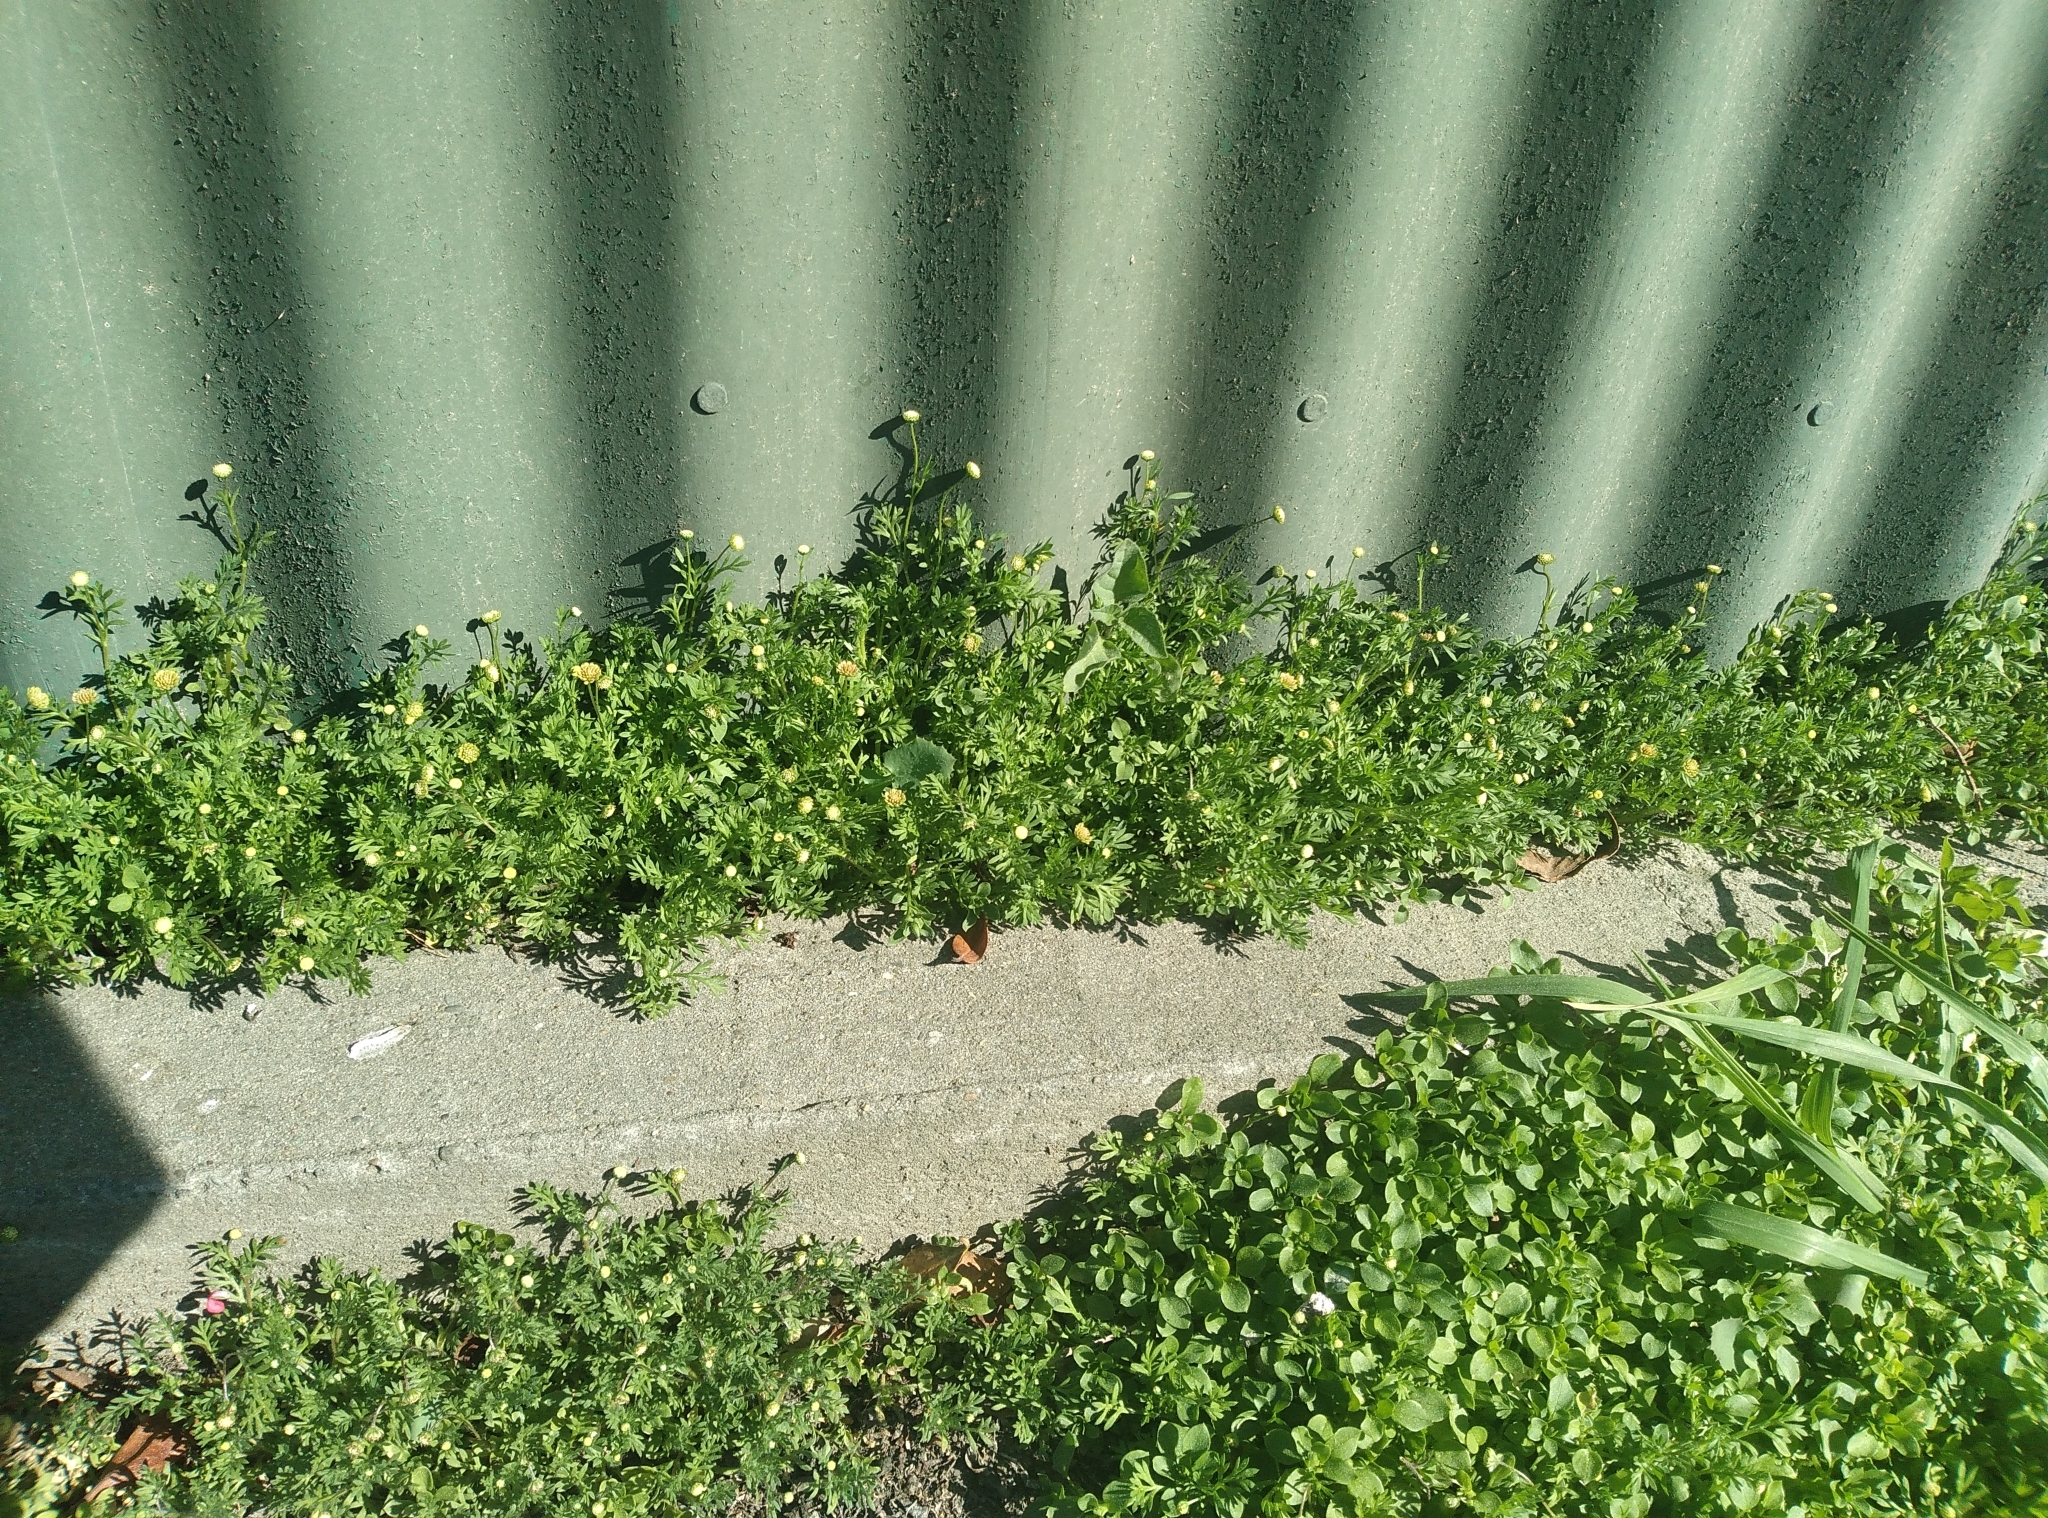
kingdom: Plantae
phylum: Tracheophyta
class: Magnoliopsida
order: Asterales
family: Asteraceae
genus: Cotula
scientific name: Cotula australis
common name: Australian waterbuttons
